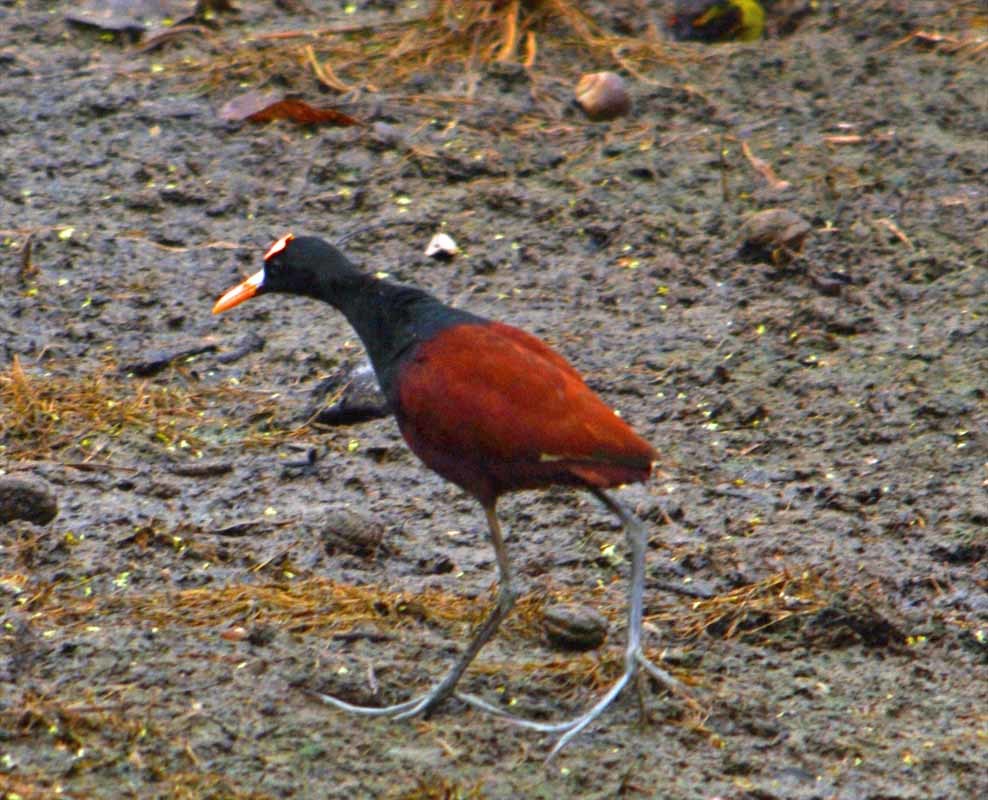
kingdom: Animalia
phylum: Chordata
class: Aves
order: Charadriiformes
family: Jacanidae
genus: Jacana
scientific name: Jacana spinosa
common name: Northern jacana
